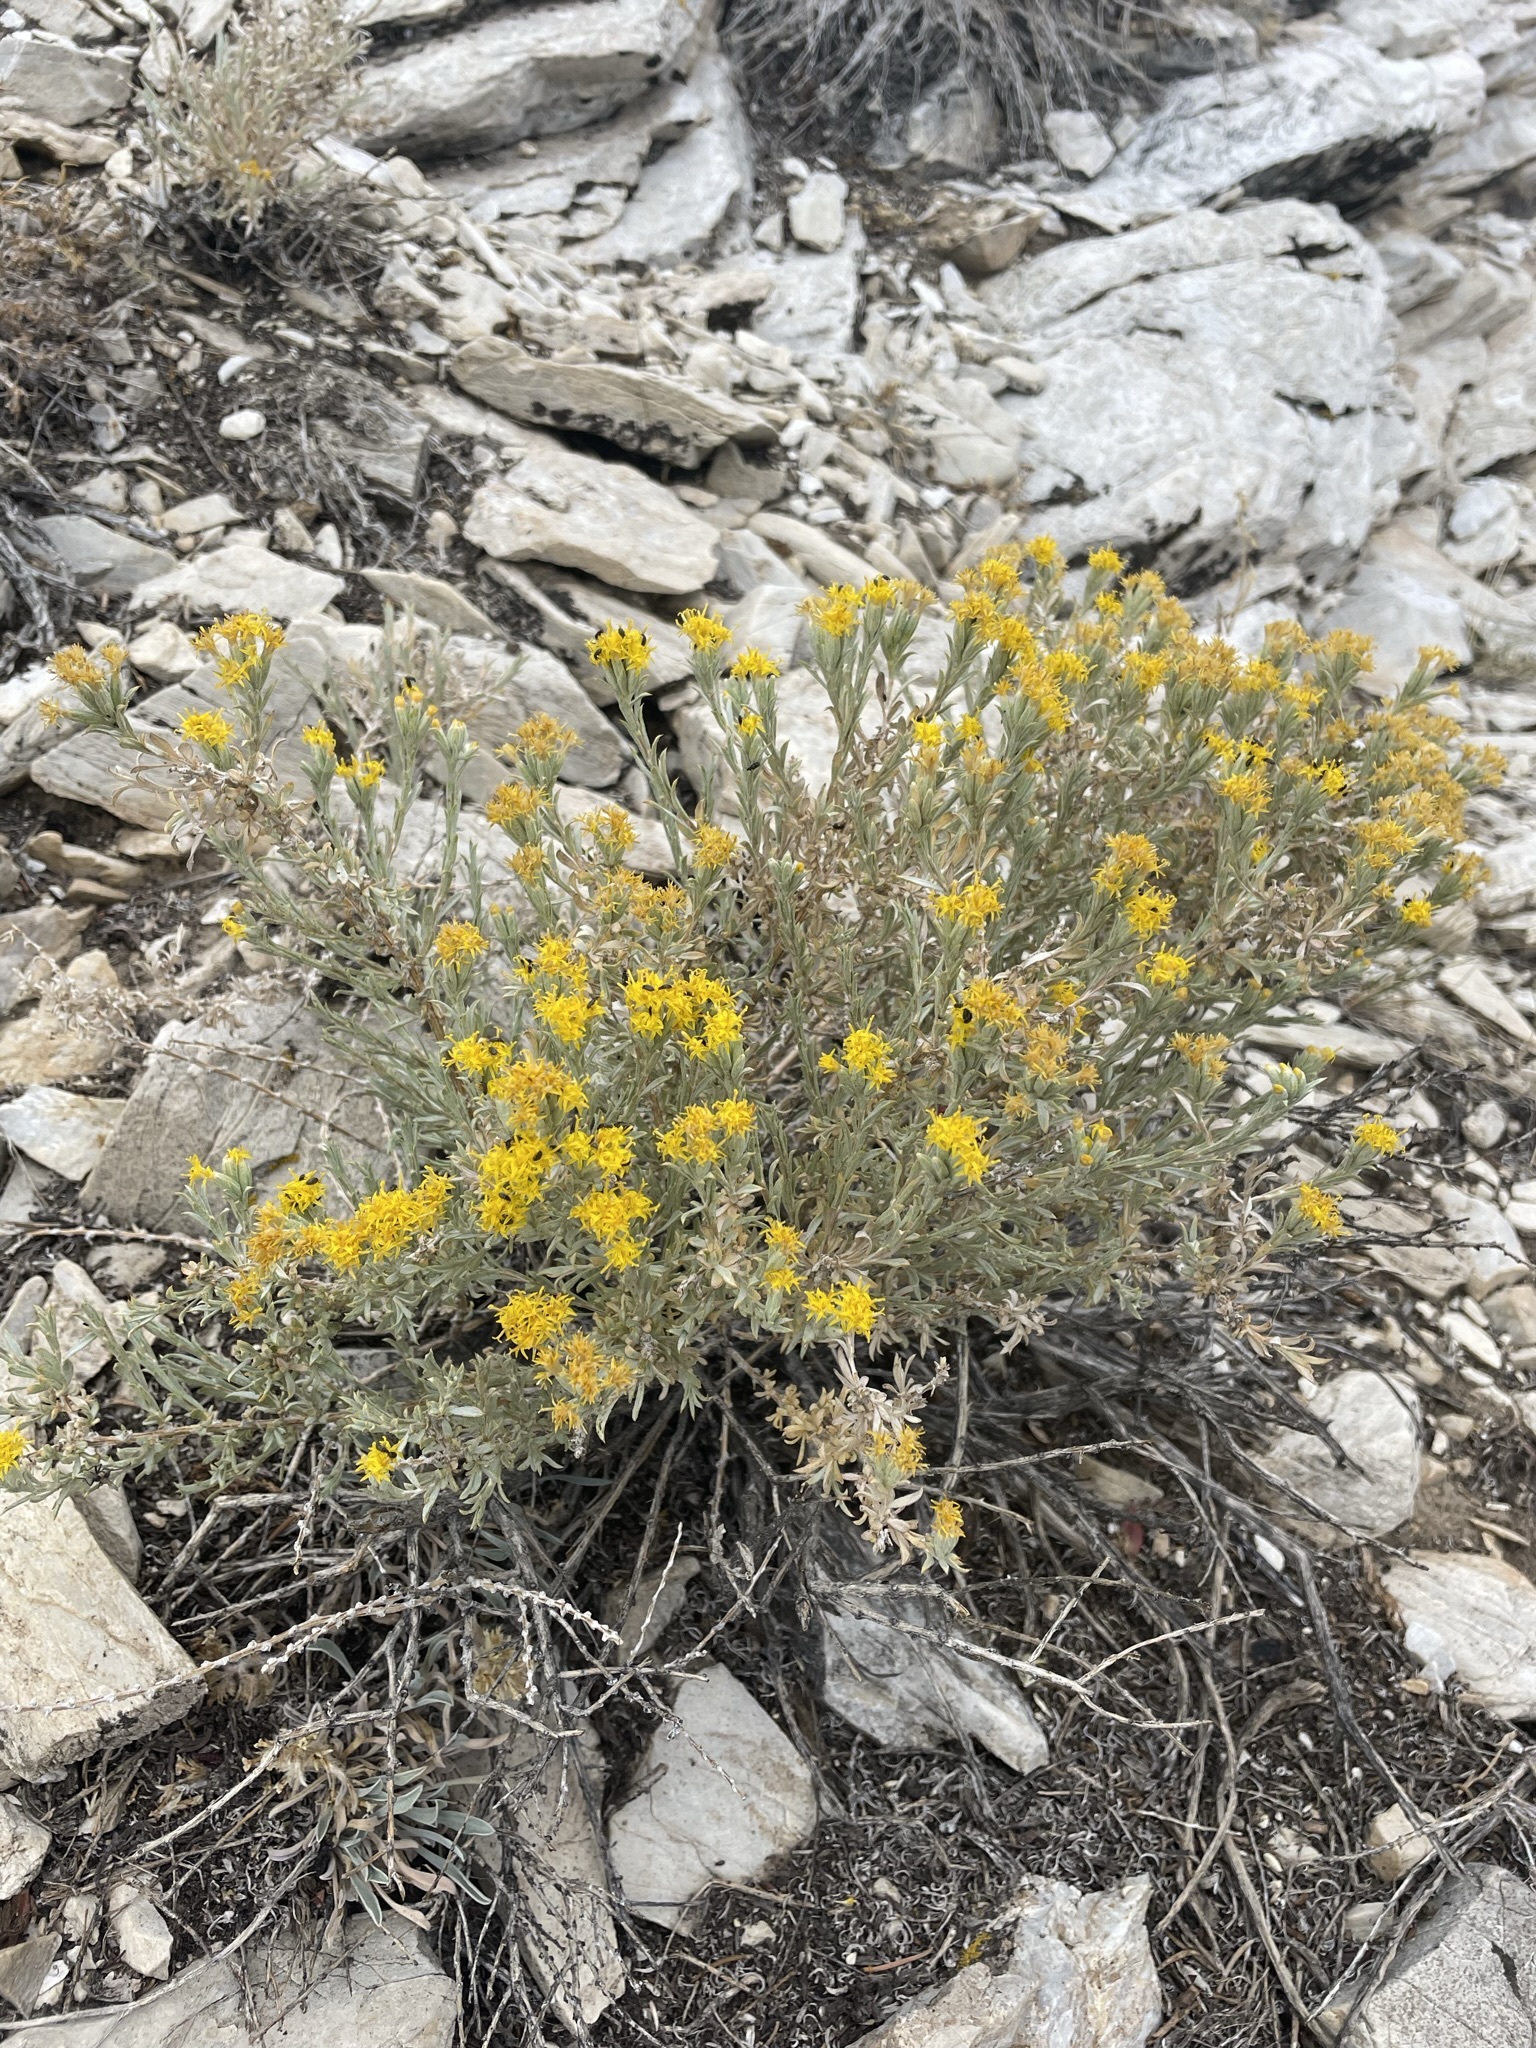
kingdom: Plantae
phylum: Tracheophyta
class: Magnoliopsida
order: Asterales
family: Asteraceae
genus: Tetradymia
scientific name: Tetradymia canescens
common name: Spineless horsebrush
